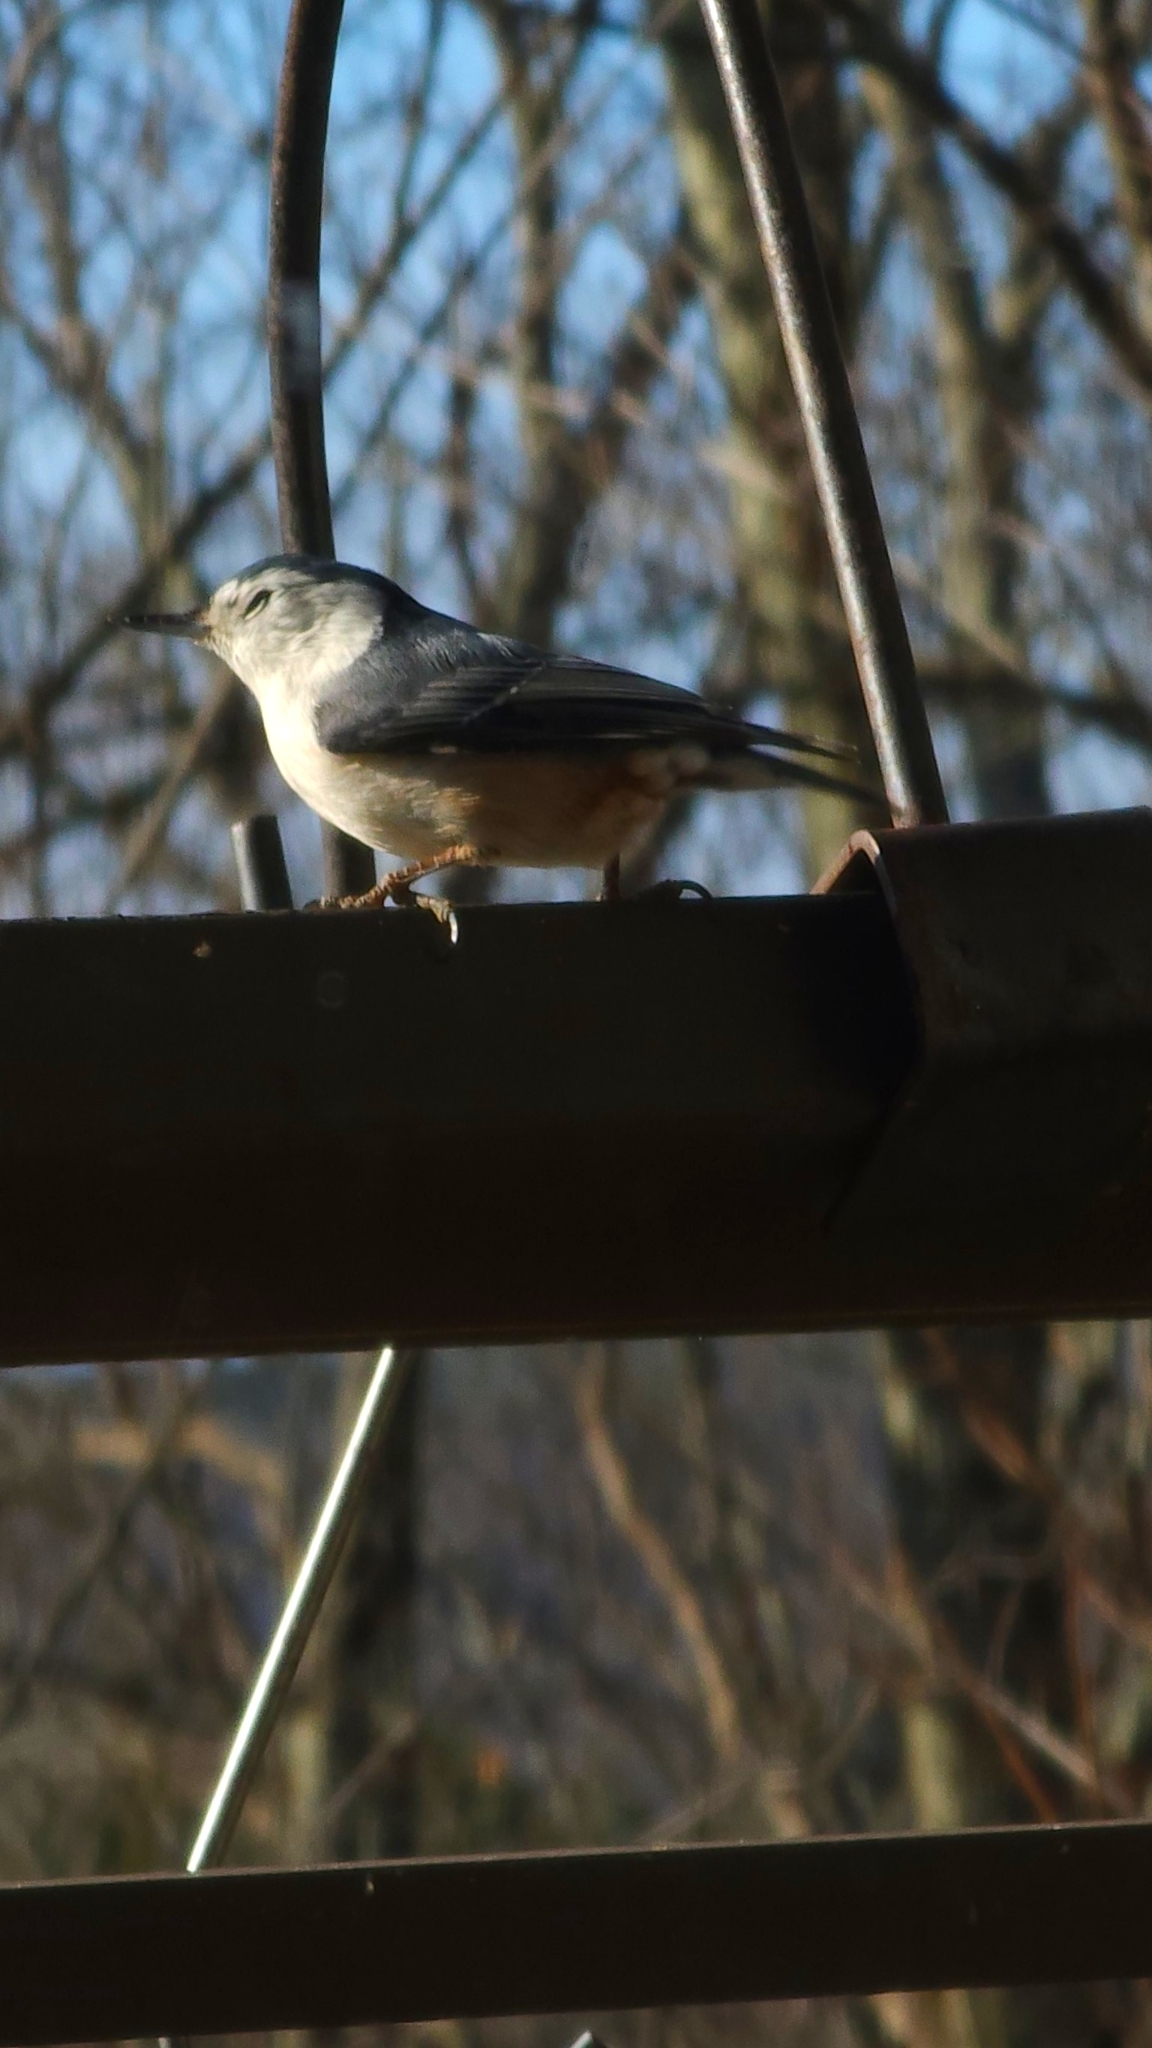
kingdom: Animalia
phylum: Chordata
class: Aves
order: Passeriformes
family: Sittidae
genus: Sitta
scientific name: Sitta carolinensis
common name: White-breasted nuthatch
